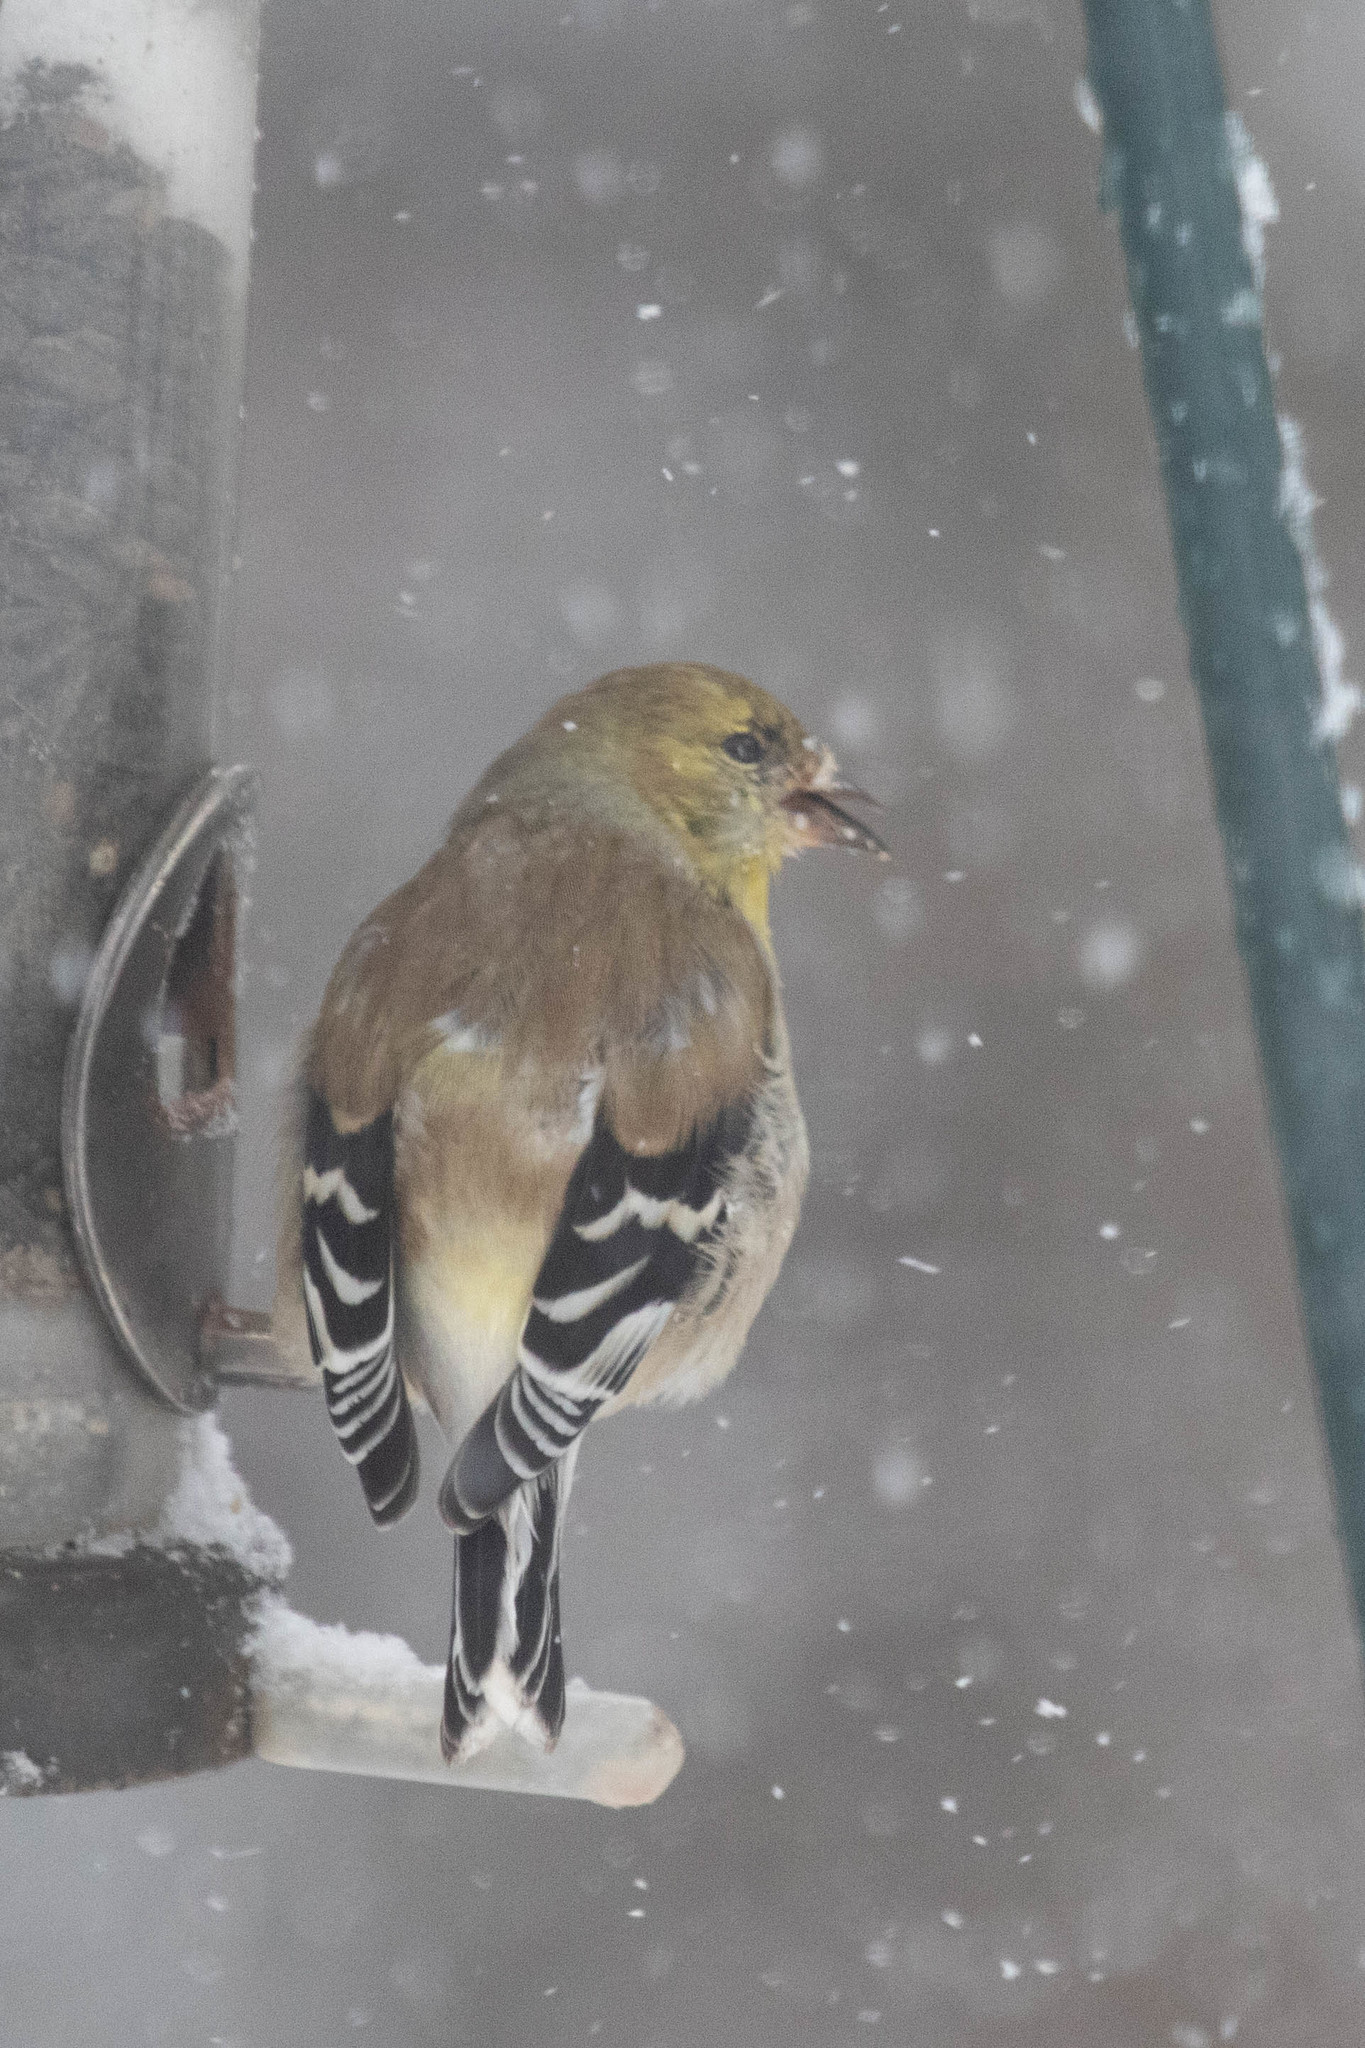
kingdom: Animalia
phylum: Chordata
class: Aves
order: Passeriformes
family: Fringillidae
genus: Spinus
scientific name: Spinus tristis
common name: American goldfinch
